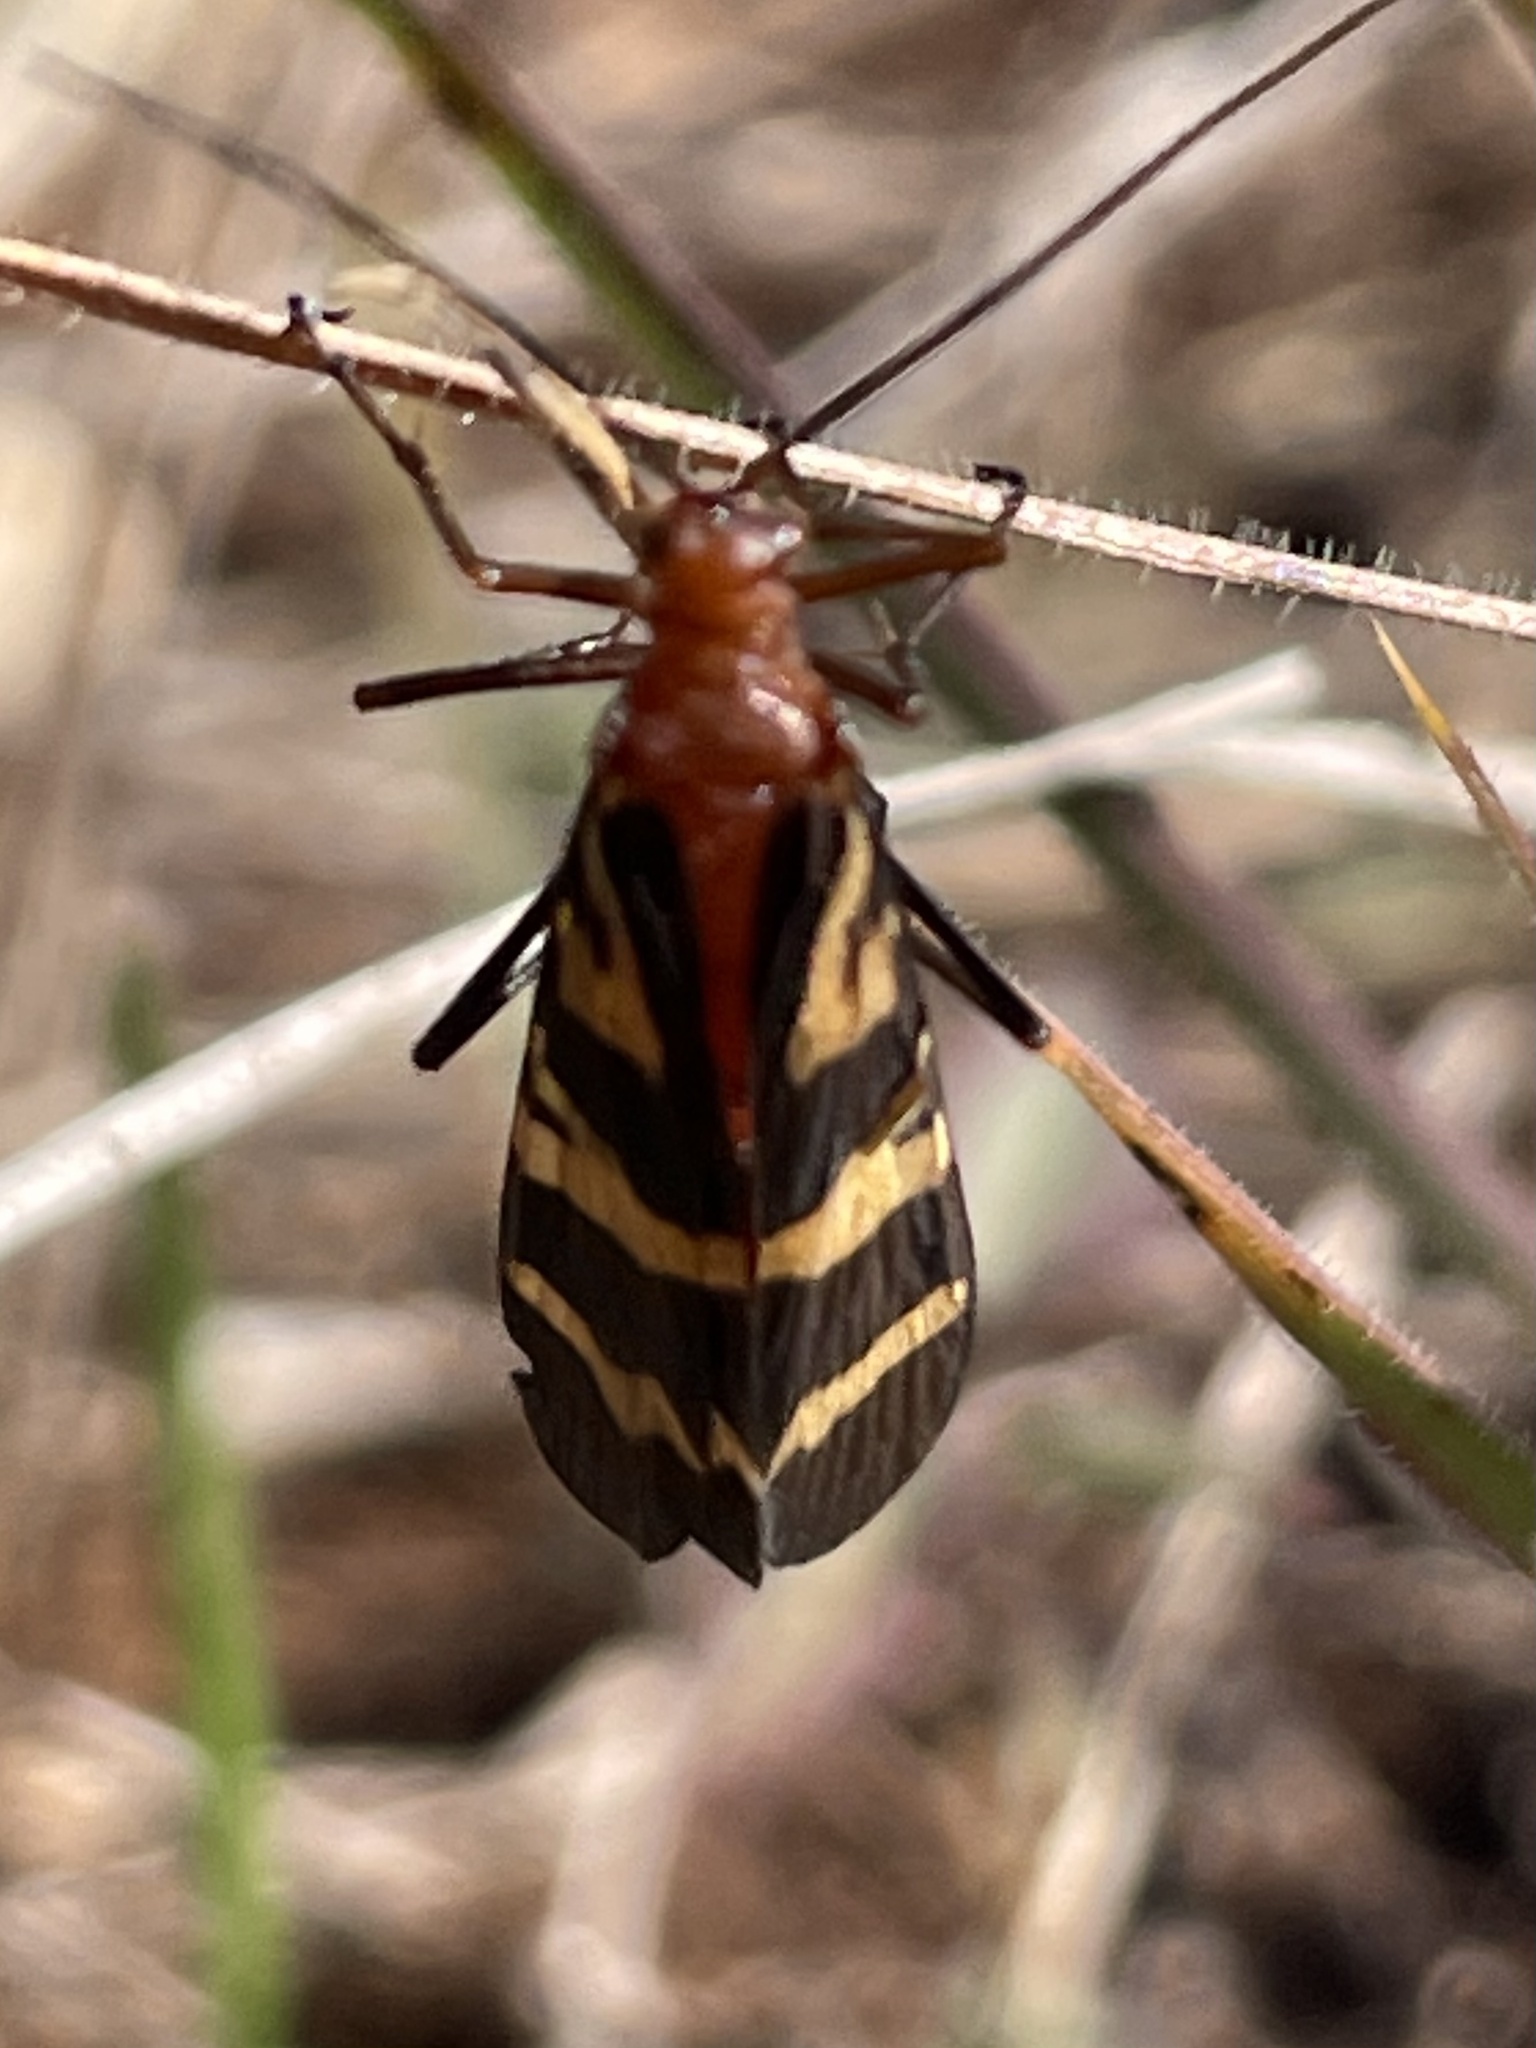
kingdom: Animalia
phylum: Arthropoda
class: Insecta
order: Mecoptera
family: Panorpidae
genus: Panorpa
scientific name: Panorpa nuptialis
